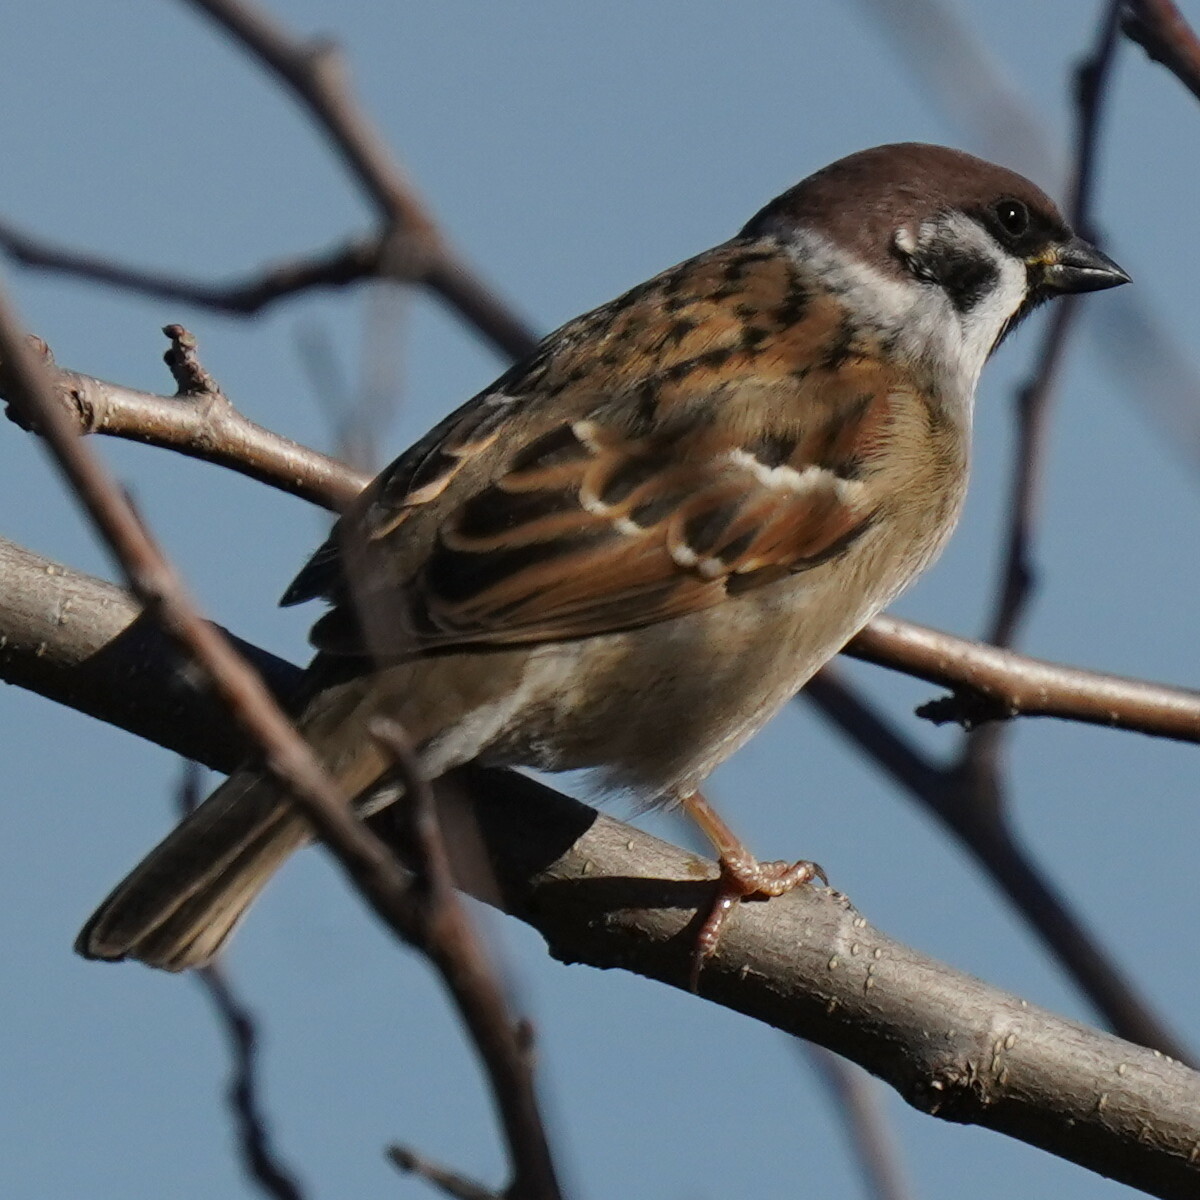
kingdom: Animalia
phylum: Chordata
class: Aves
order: Passeriformes
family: Passeridae
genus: Passer
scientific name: Passer montanus
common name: Eurasian tree sparrow
